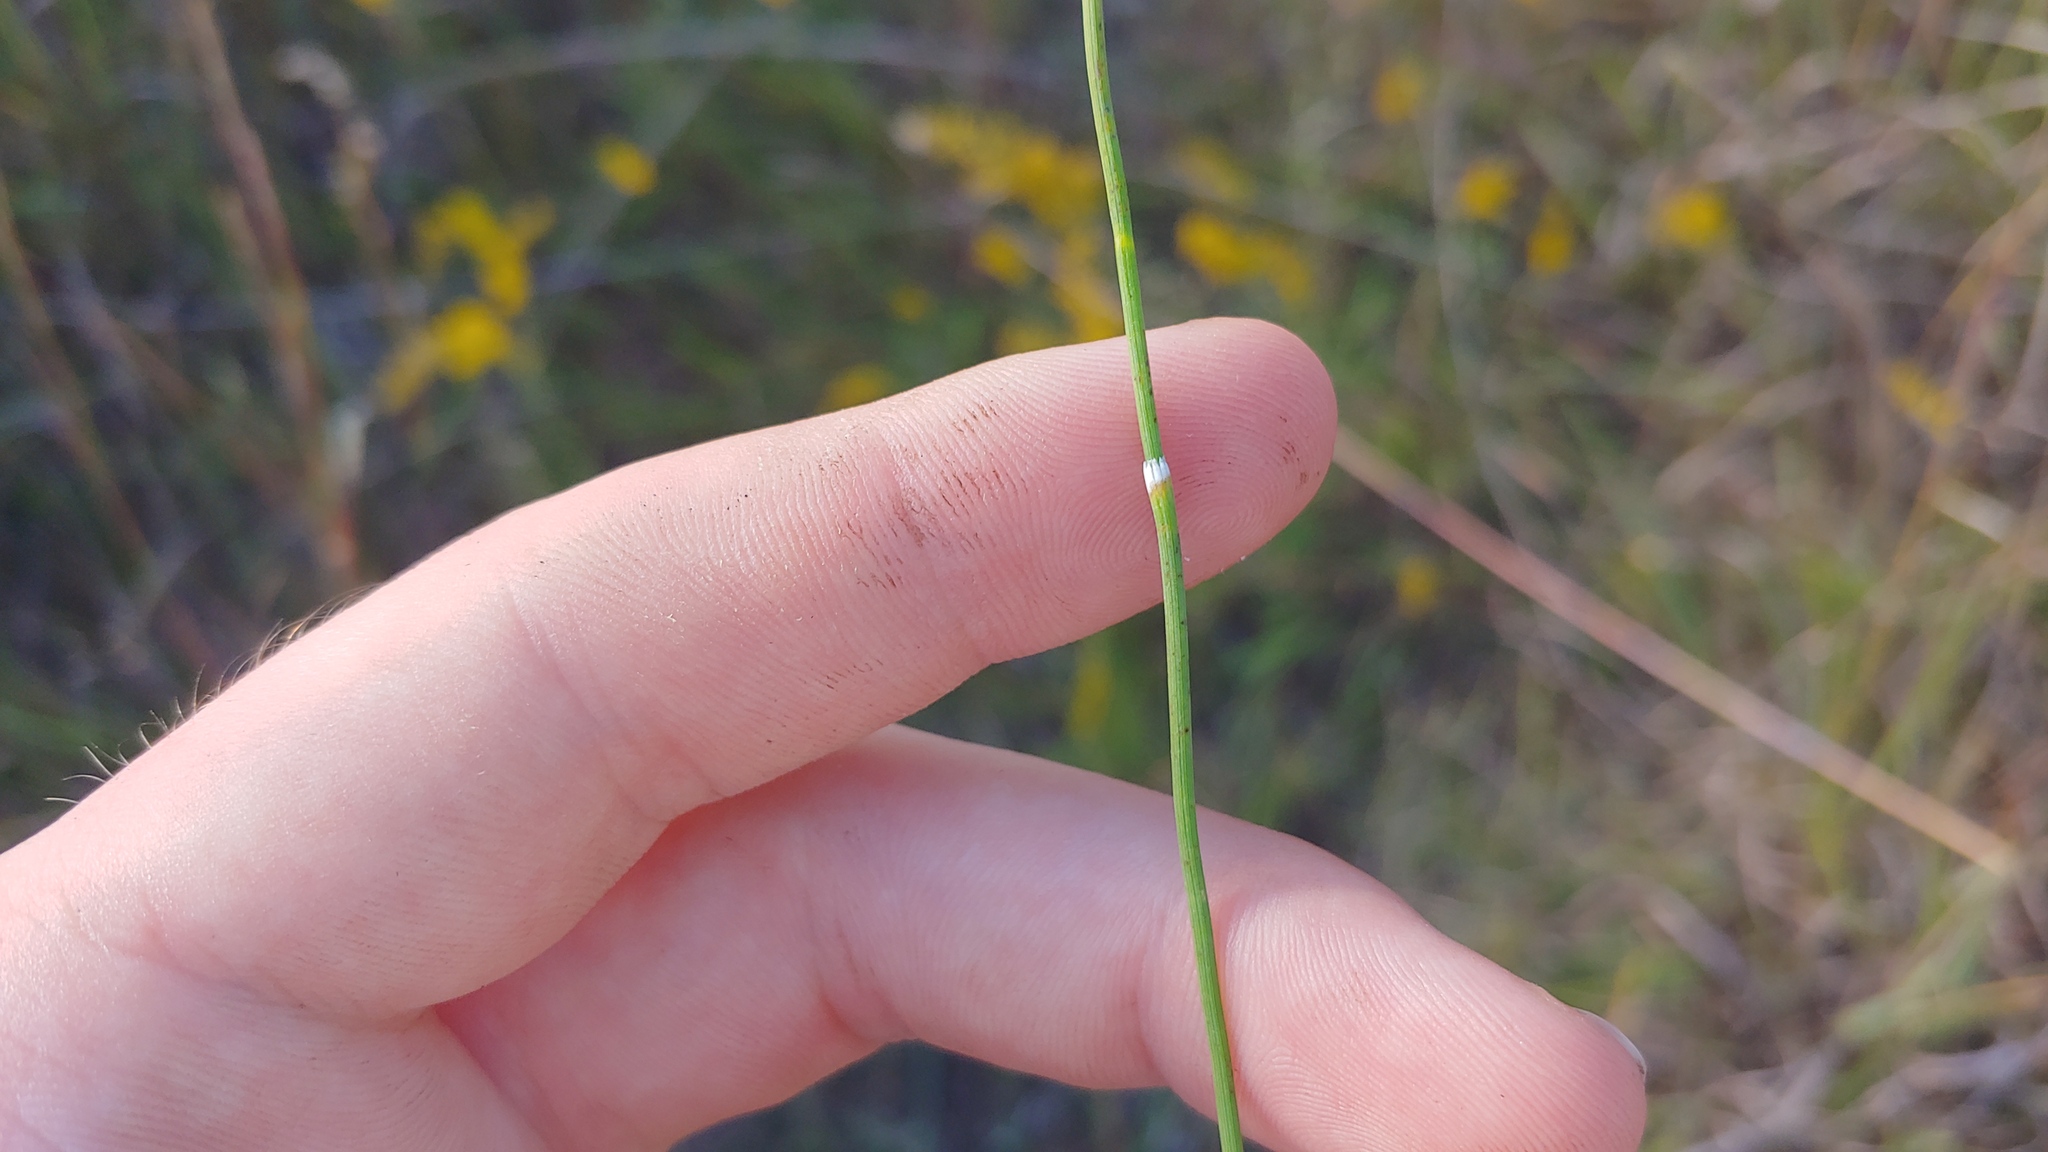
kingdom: Plantae
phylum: Tracheophyta
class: Polypodiopsida
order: Equisetales
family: Equisetaceae
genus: Equisetum
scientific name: Equisetum variegatum
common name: Variegated horsetail
